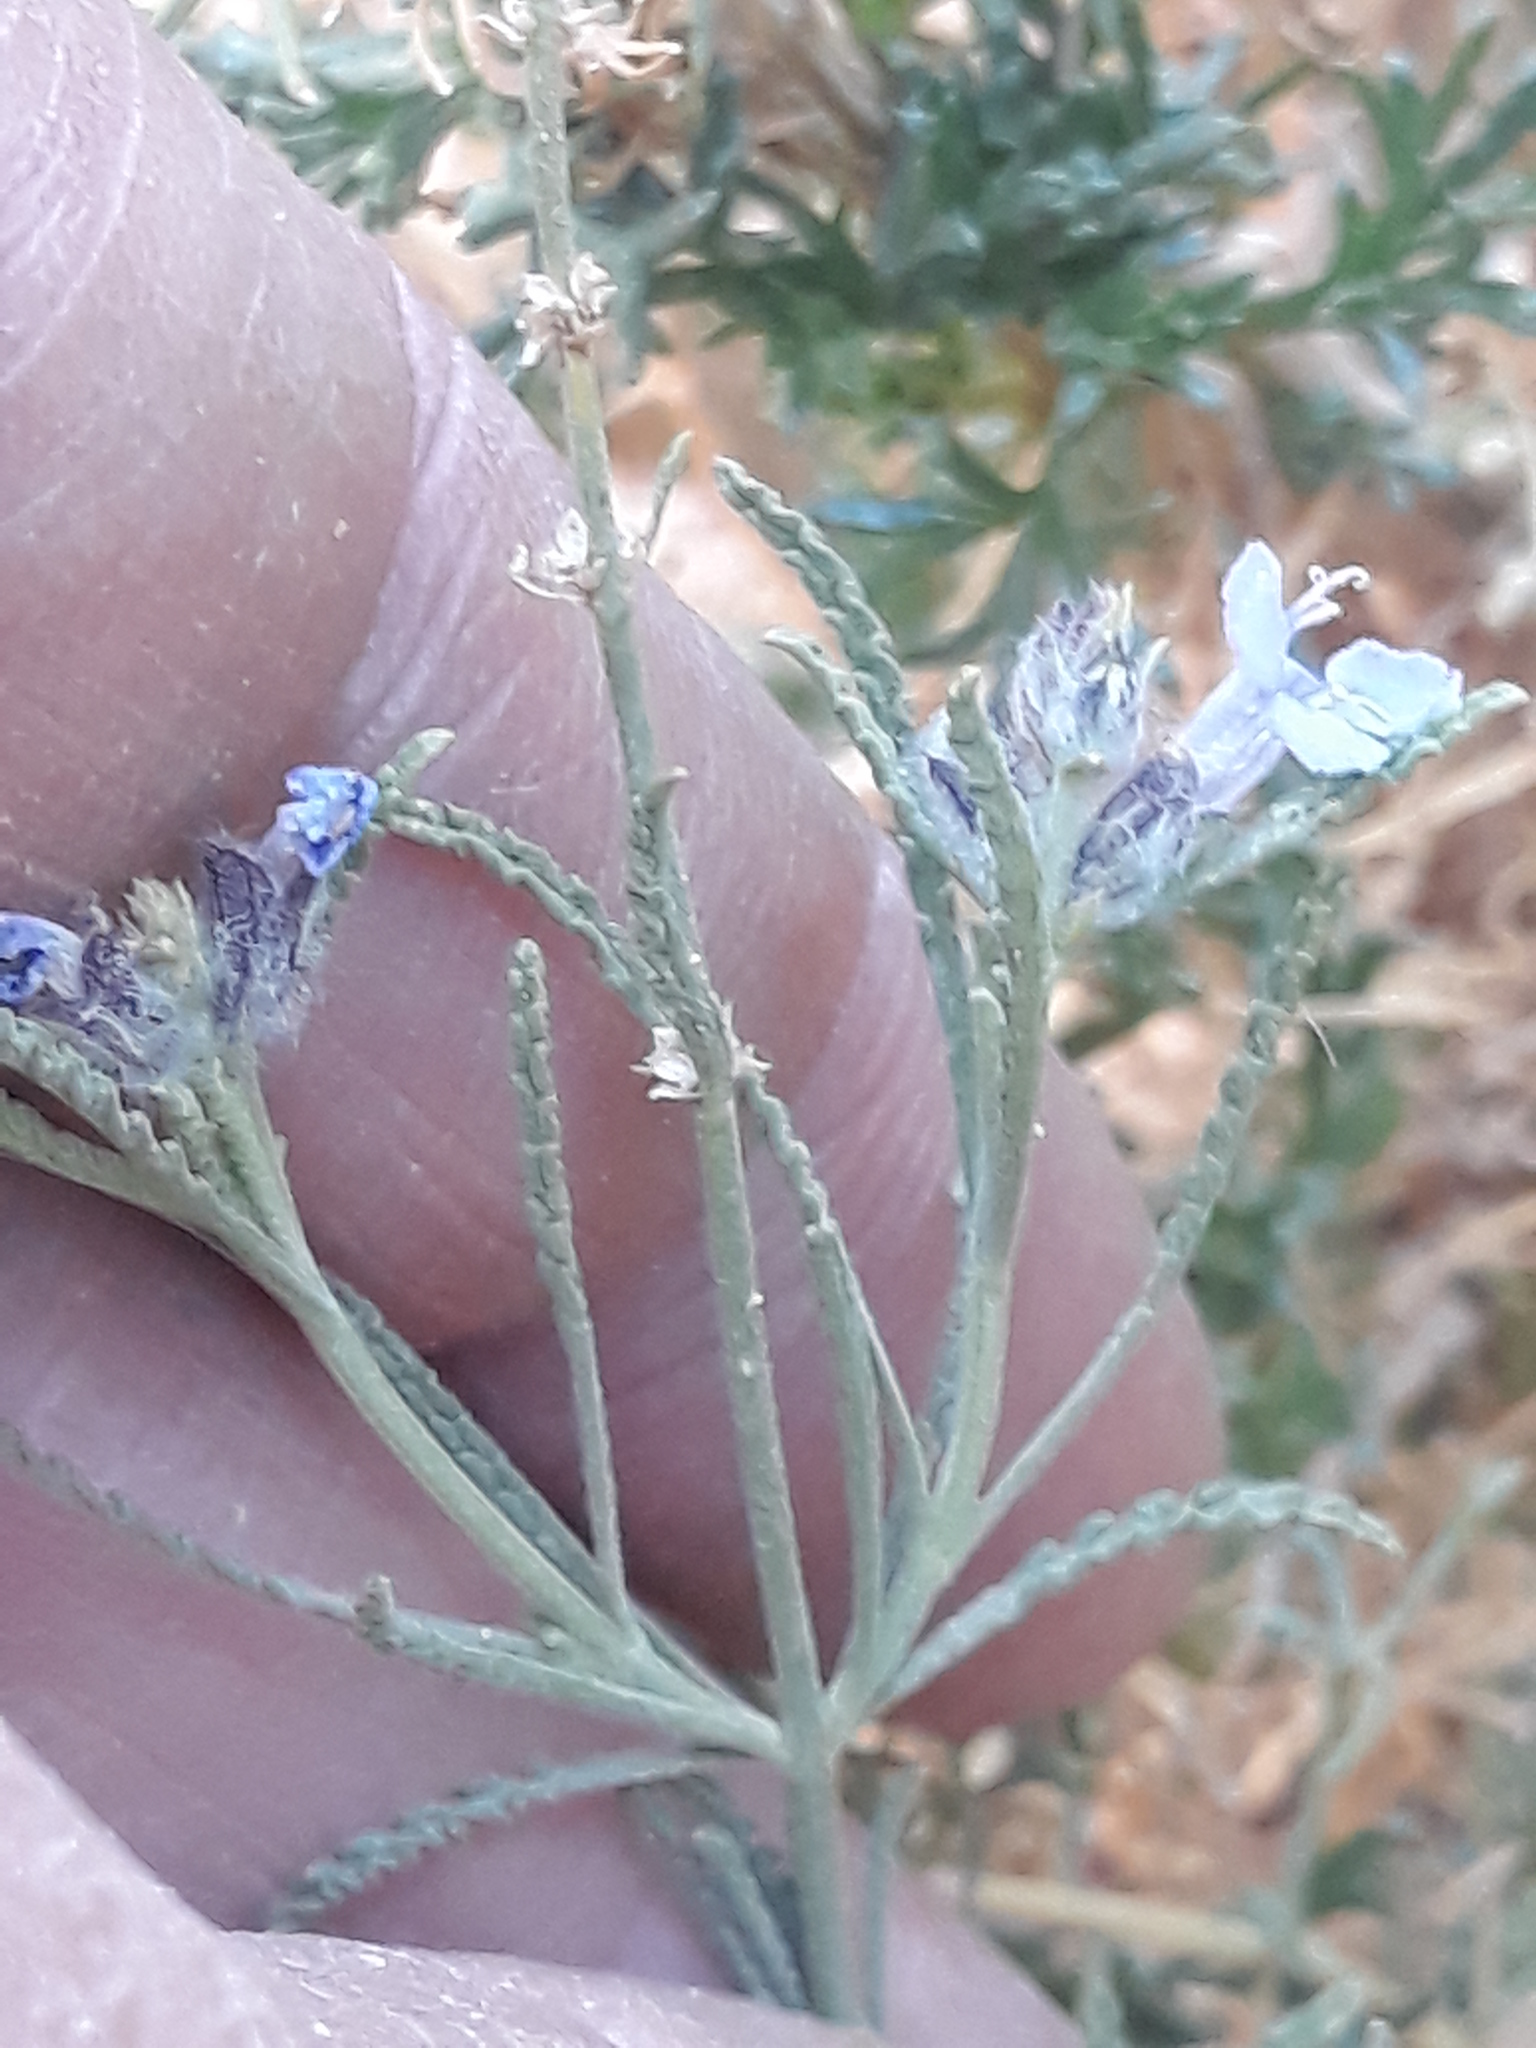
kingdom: Plantae
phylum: Tracheophyta
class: Magnoliopsida
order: Lamiales
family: Lamiaceae
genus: Salvia
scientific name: Salvia aegyptiaca
